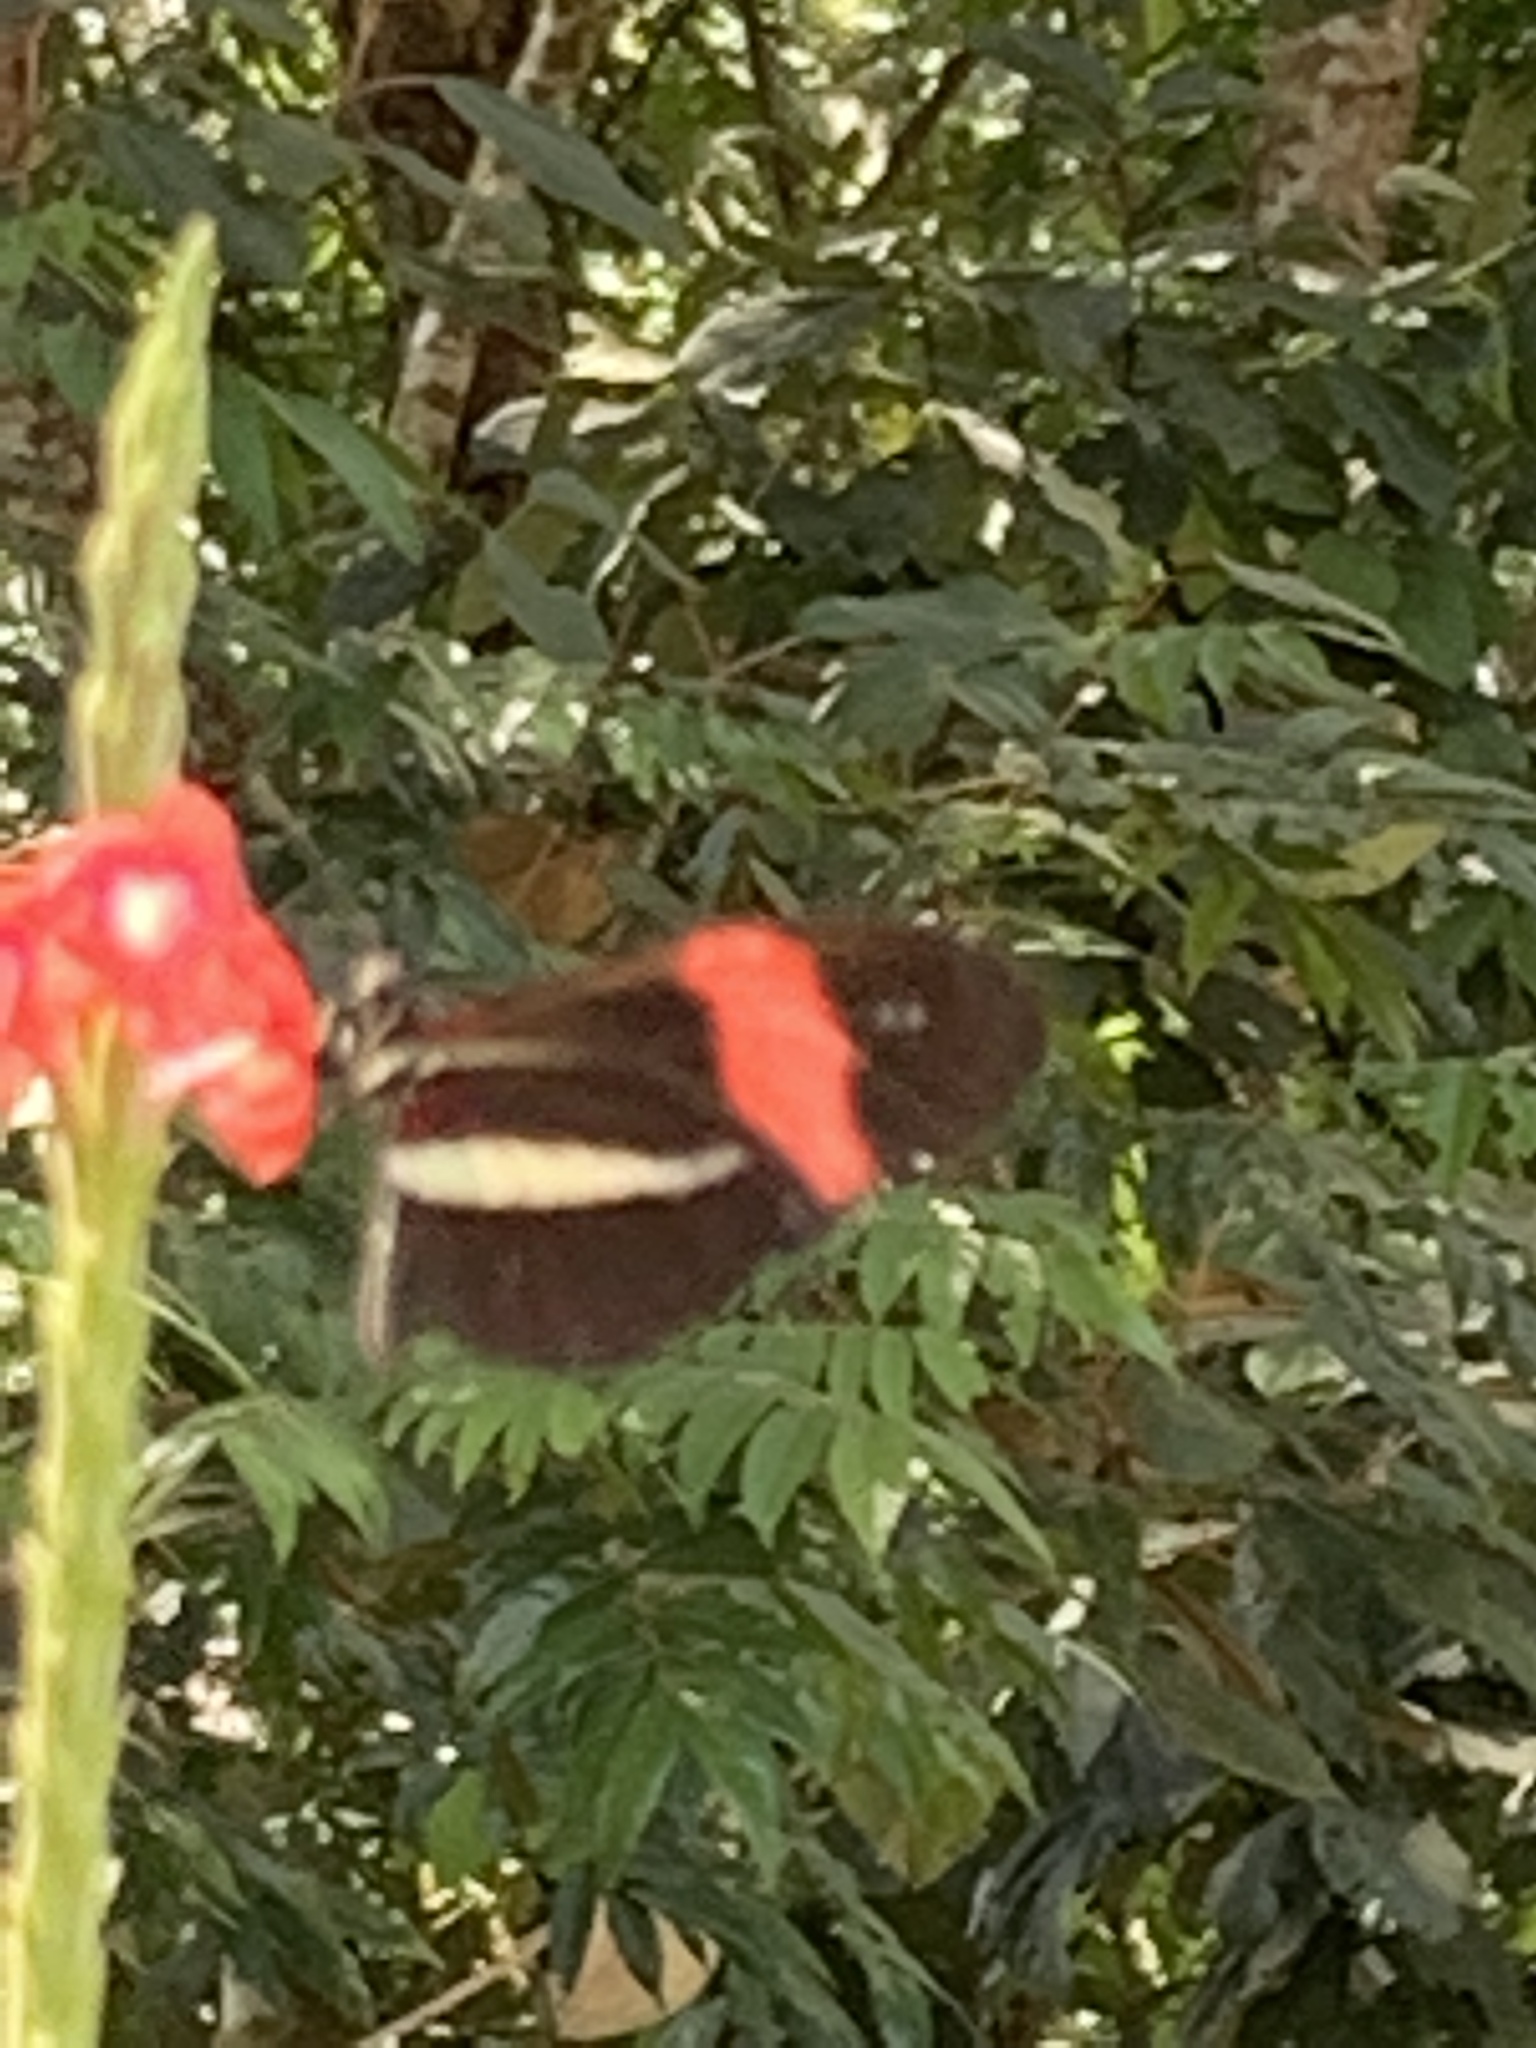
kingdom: Animalia
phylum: Arthropoda
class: Insecta
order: Lepidoptera
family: Nymphalidae
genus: Heliconius
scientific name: Heliconius erato
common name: Common patch longwing
